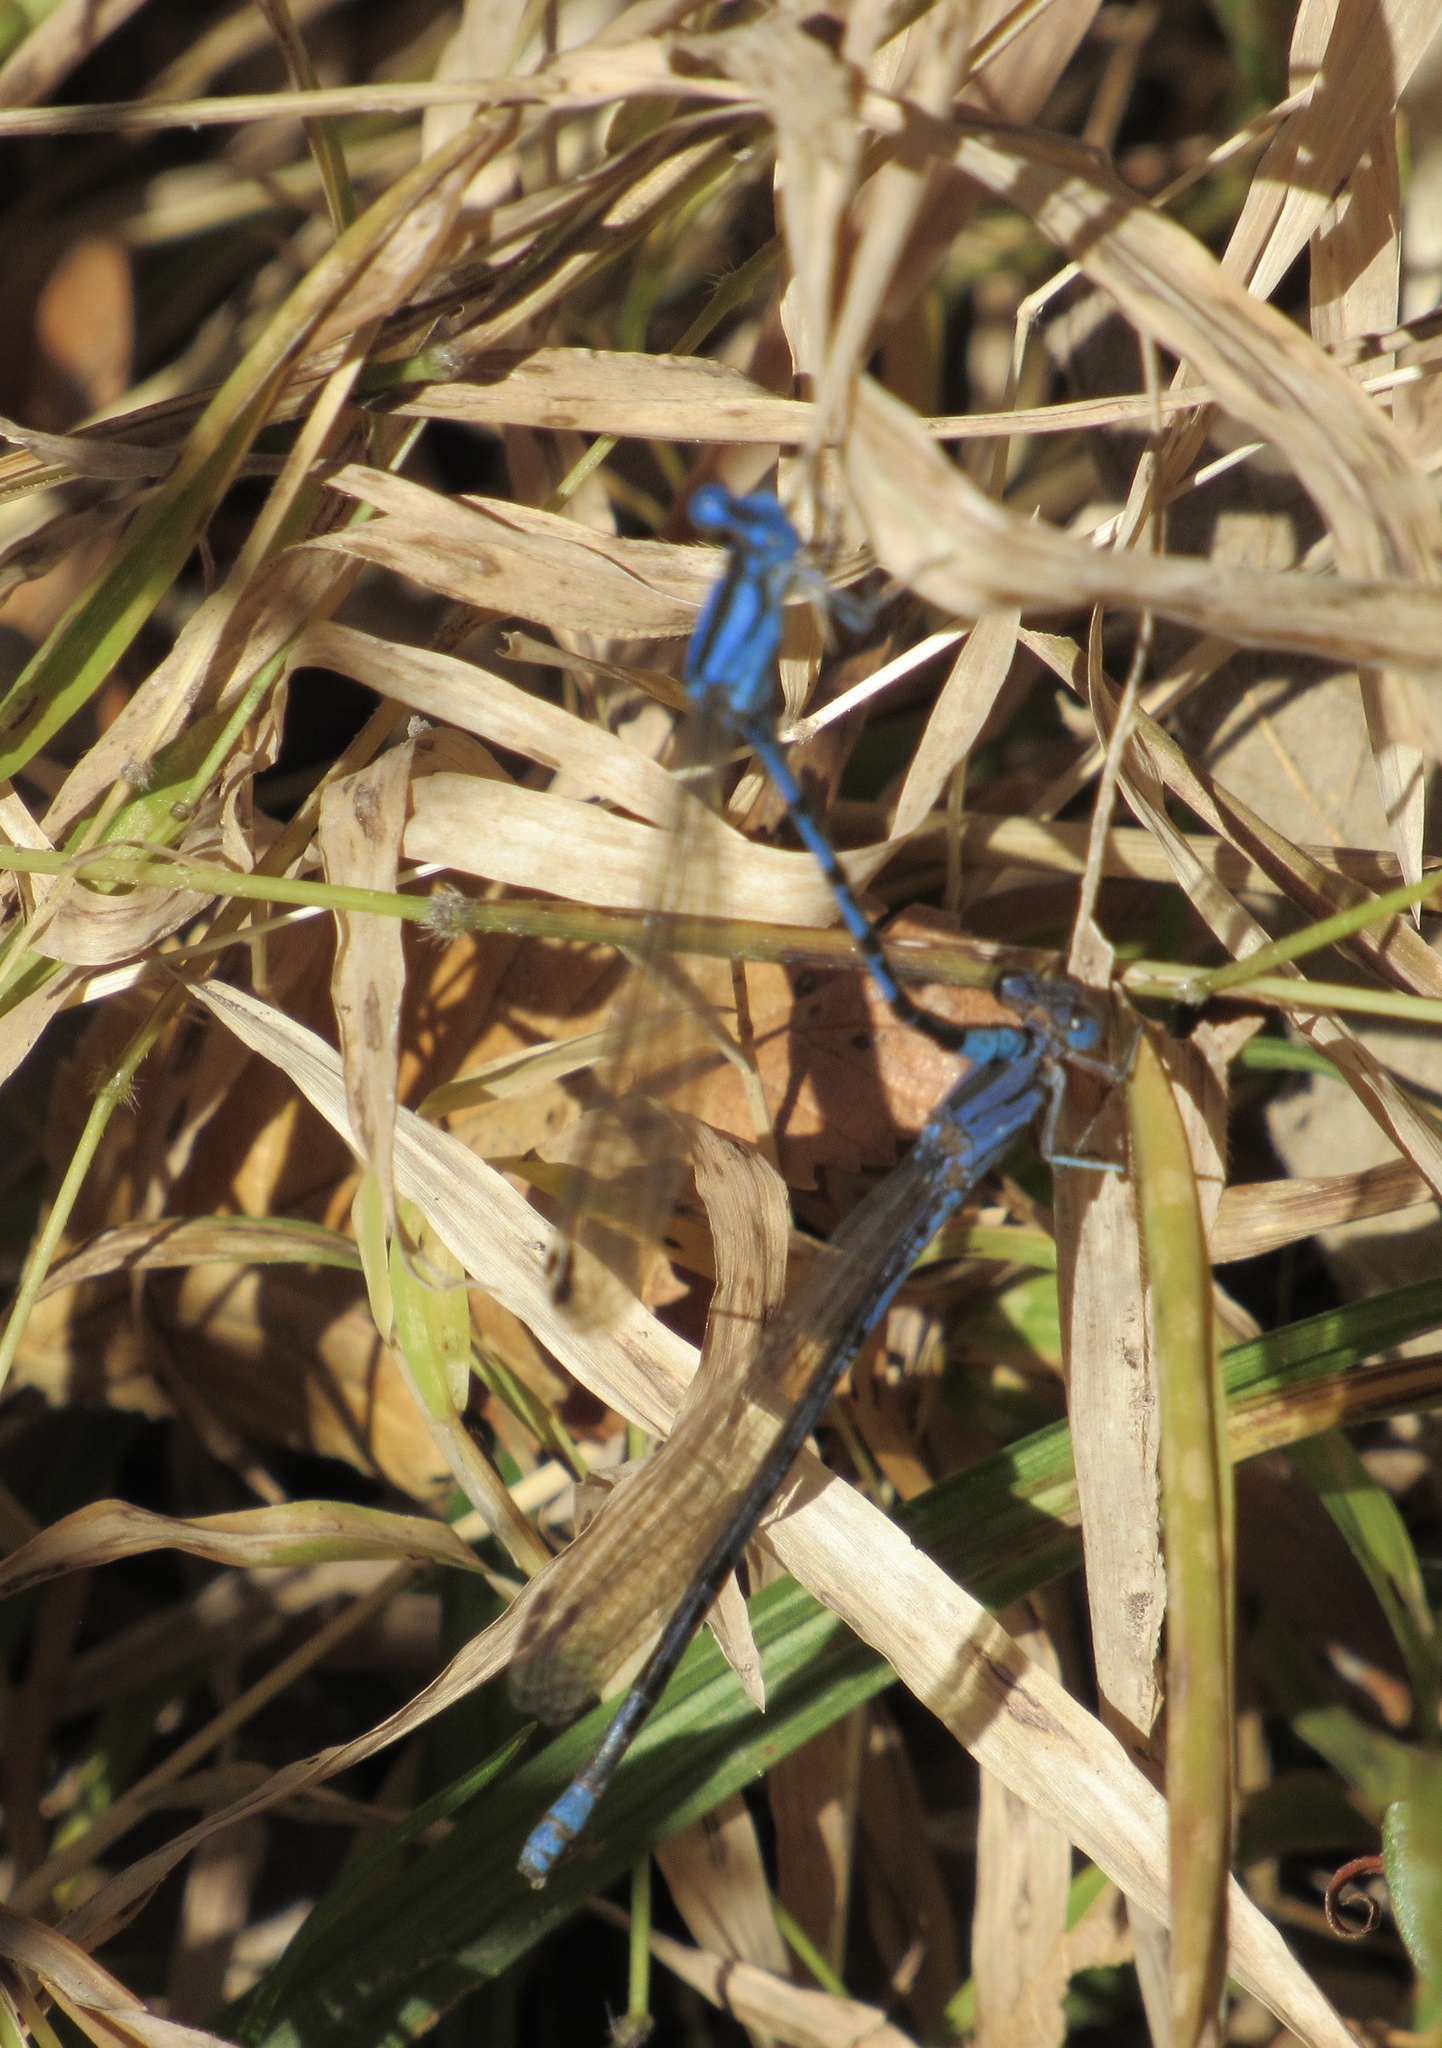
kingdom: Animalia
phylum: Arthropoda
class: Insecta
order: Odonata
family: Coenagrionidae
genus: Argia
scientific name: Argia funebris
